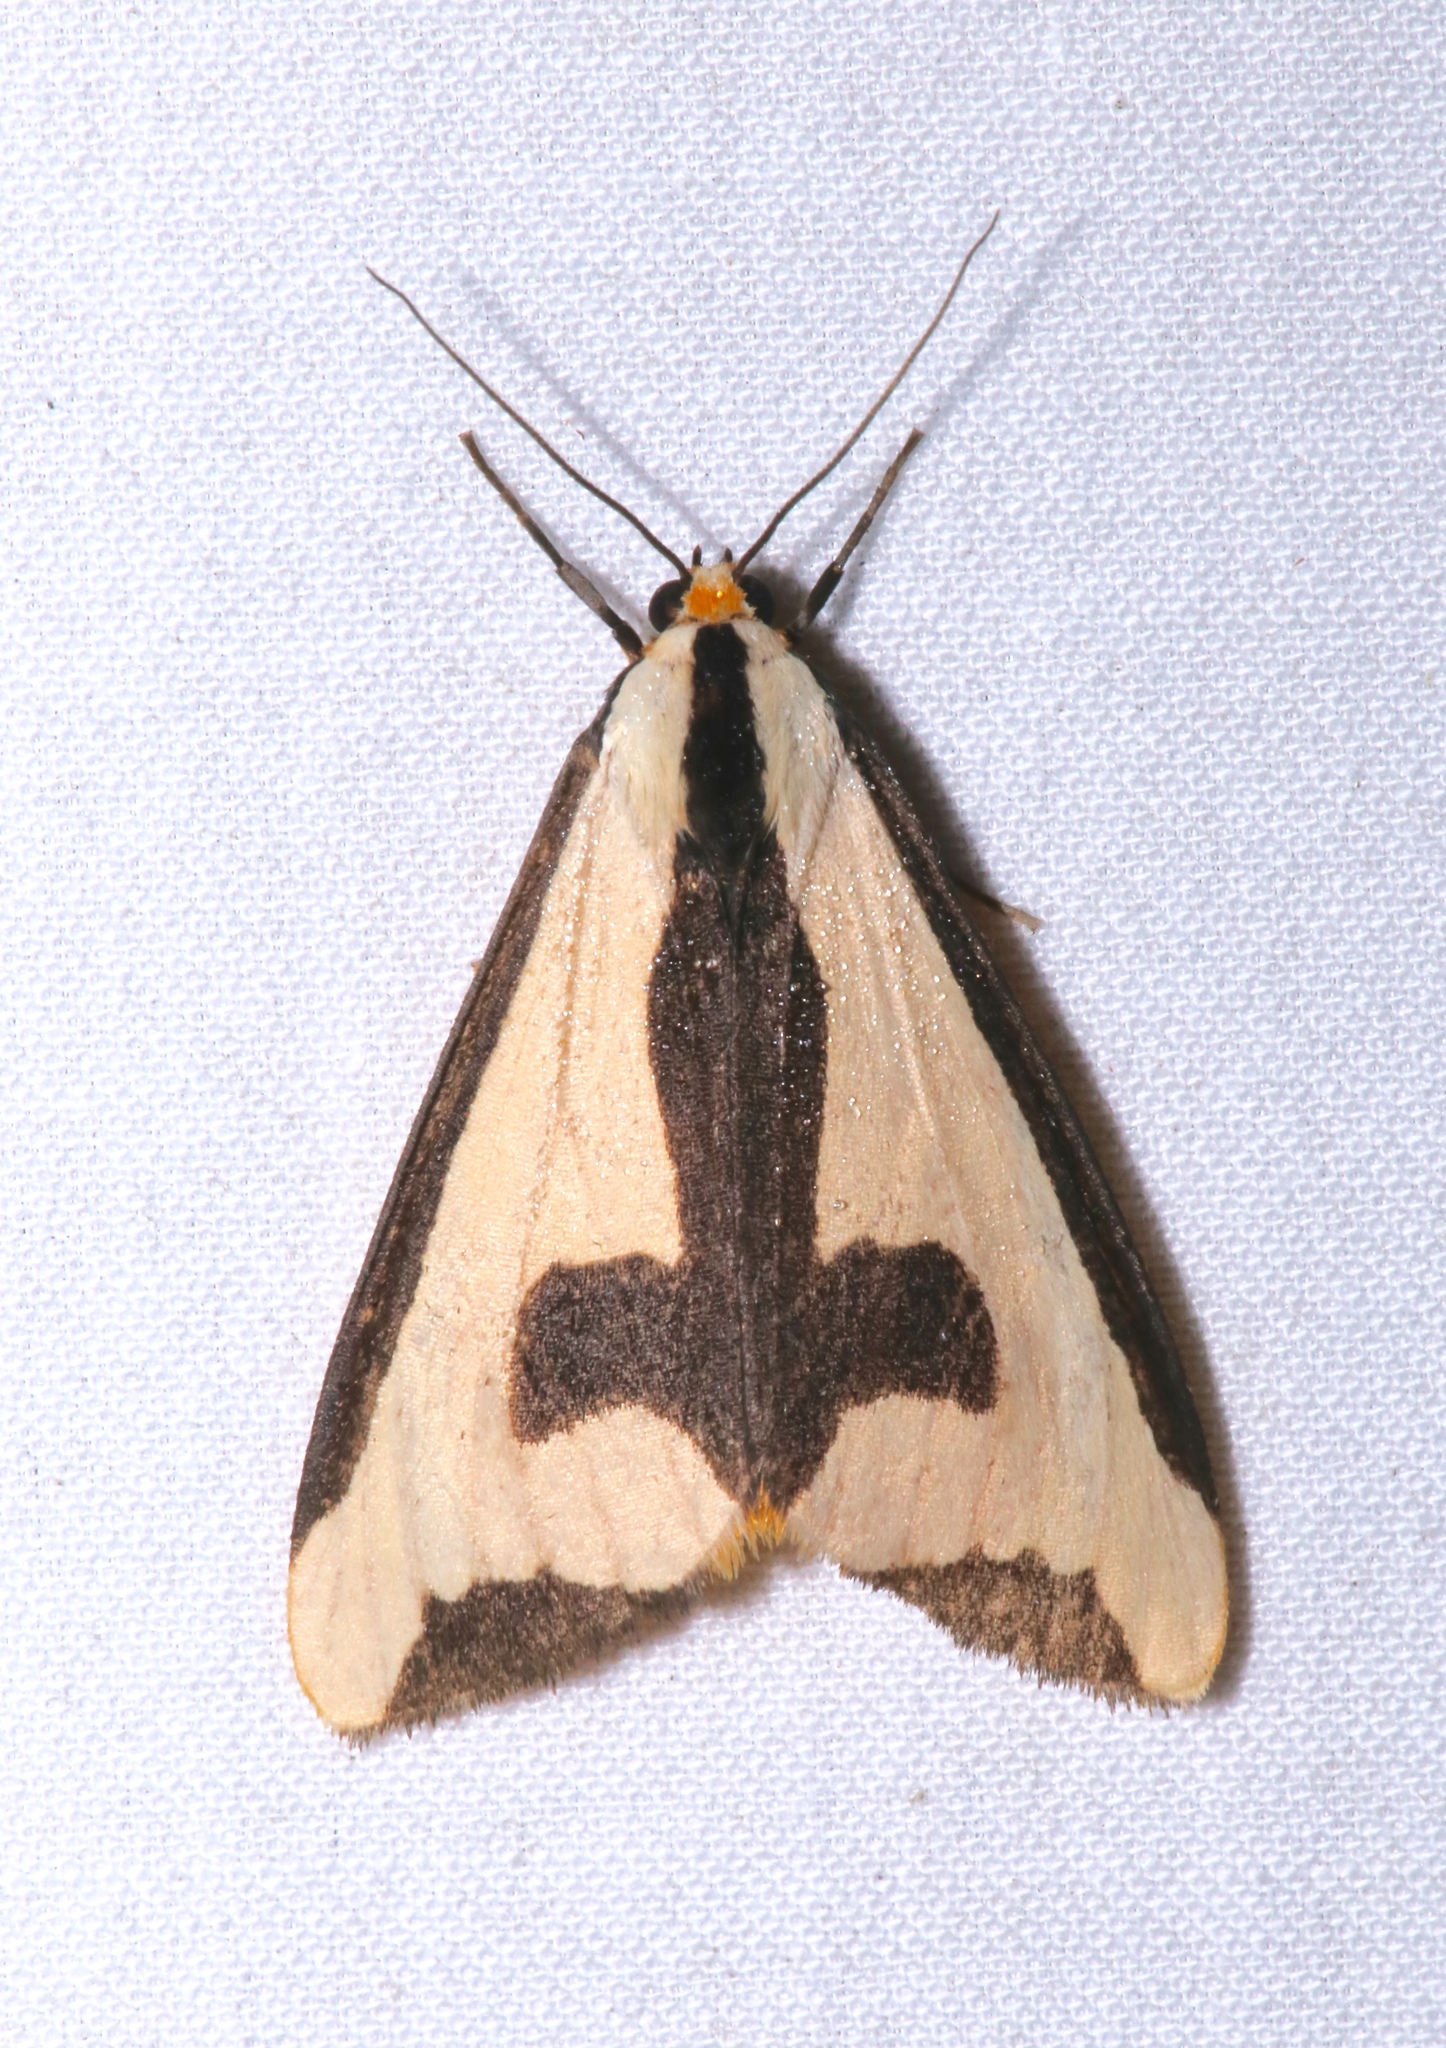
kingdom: Animalia
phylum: Arthropoda
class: Insecta
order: Lepidoptera
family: Erebidae
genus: Haploa
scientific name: Haploa clymene
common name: Clymene moth
